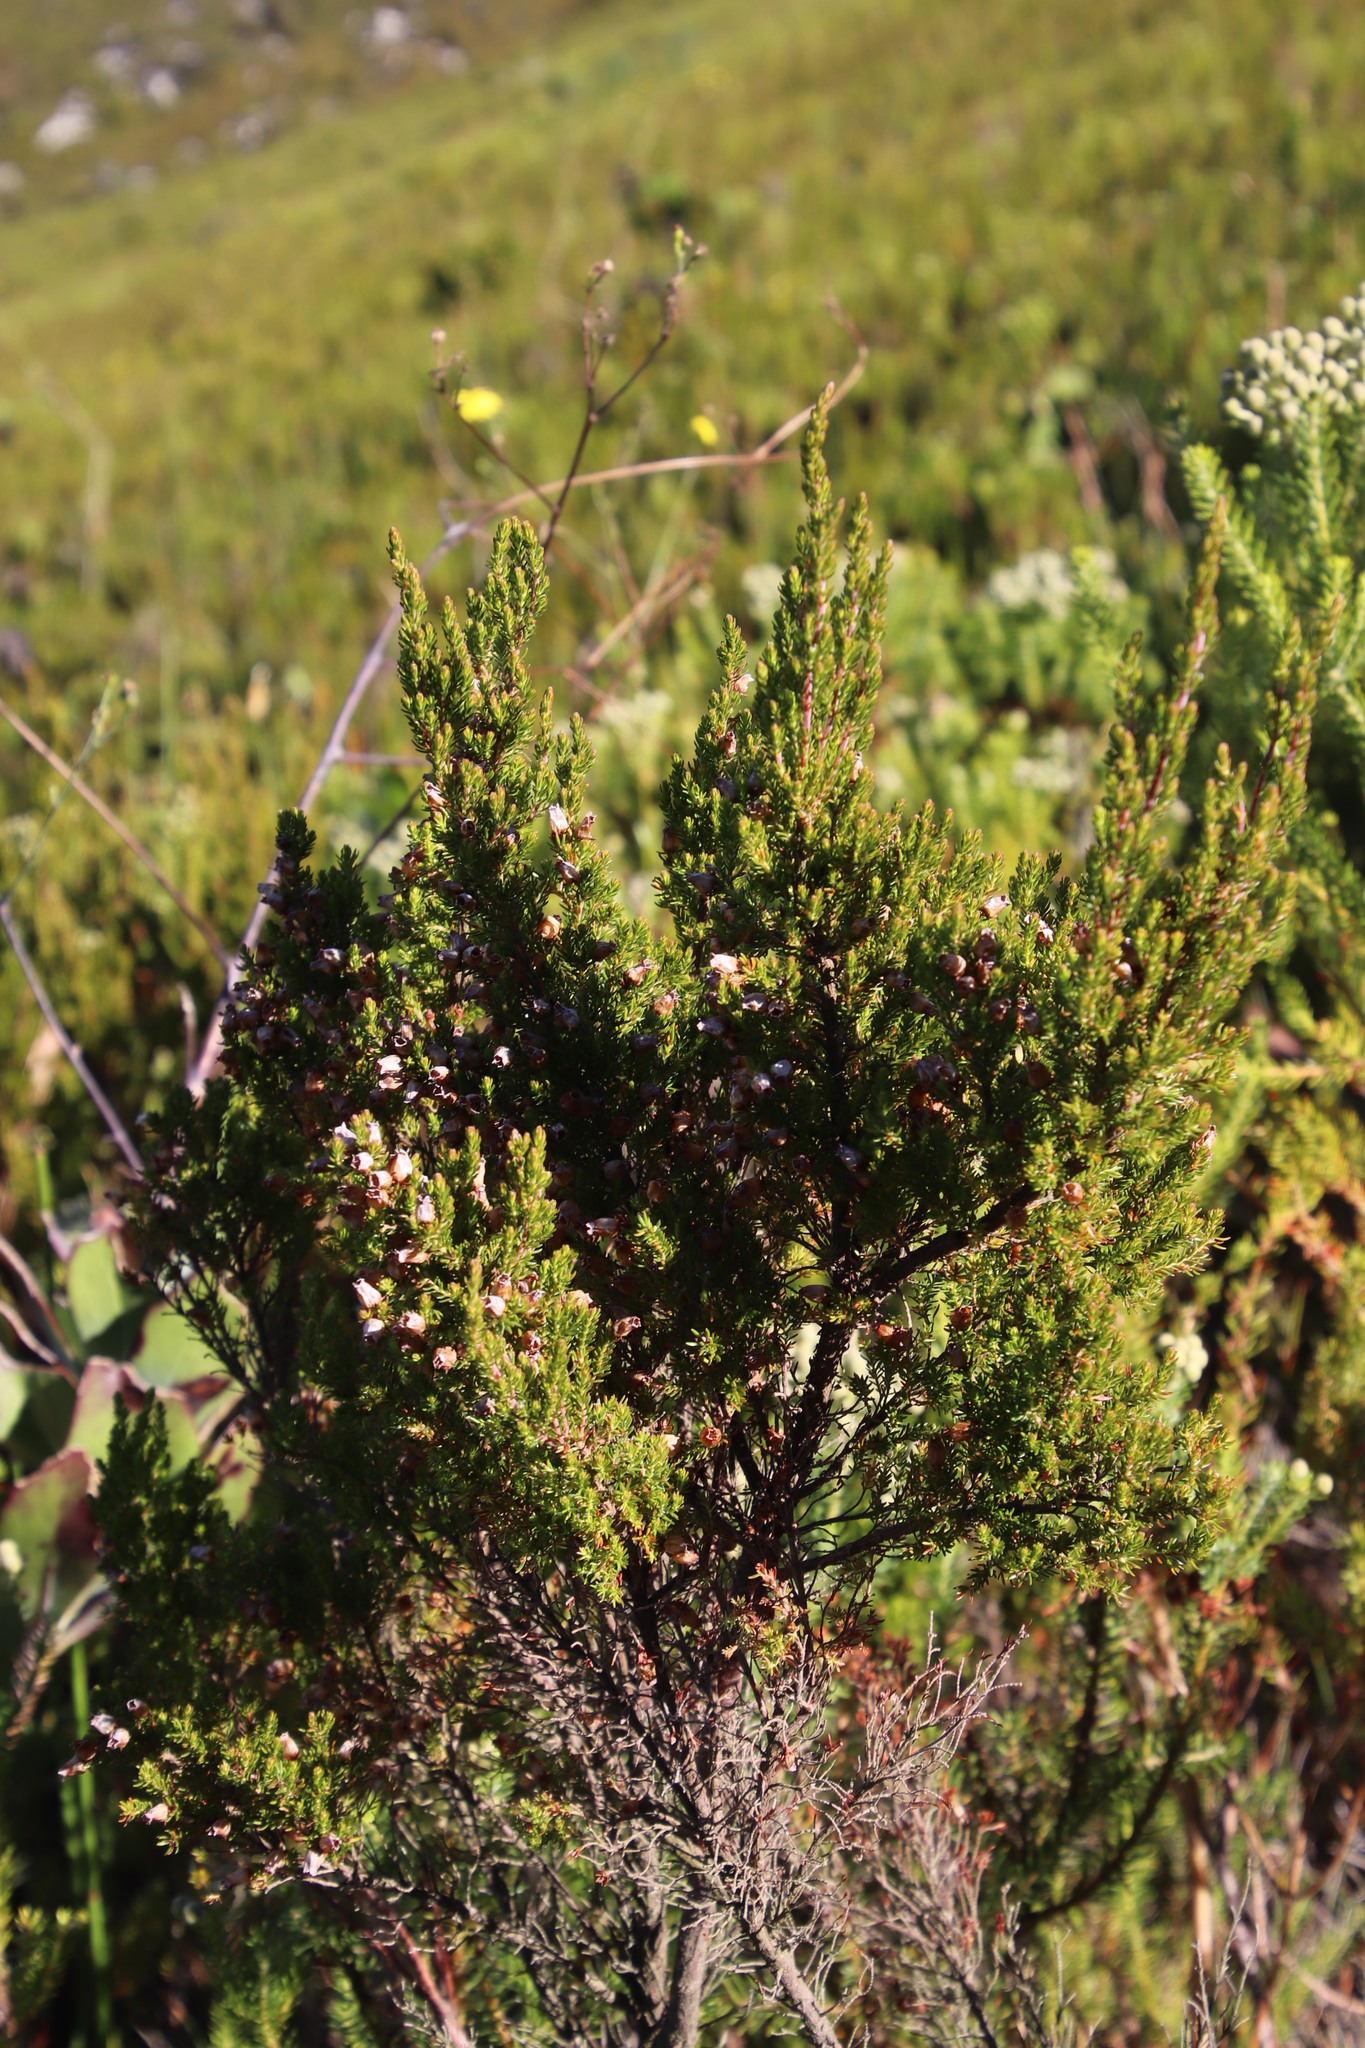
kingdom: Plantae
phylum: Tracheophyta
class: Magnoliopsida
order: Ericales
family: Ericaceae
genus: Erica
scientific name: Erica sitiens
